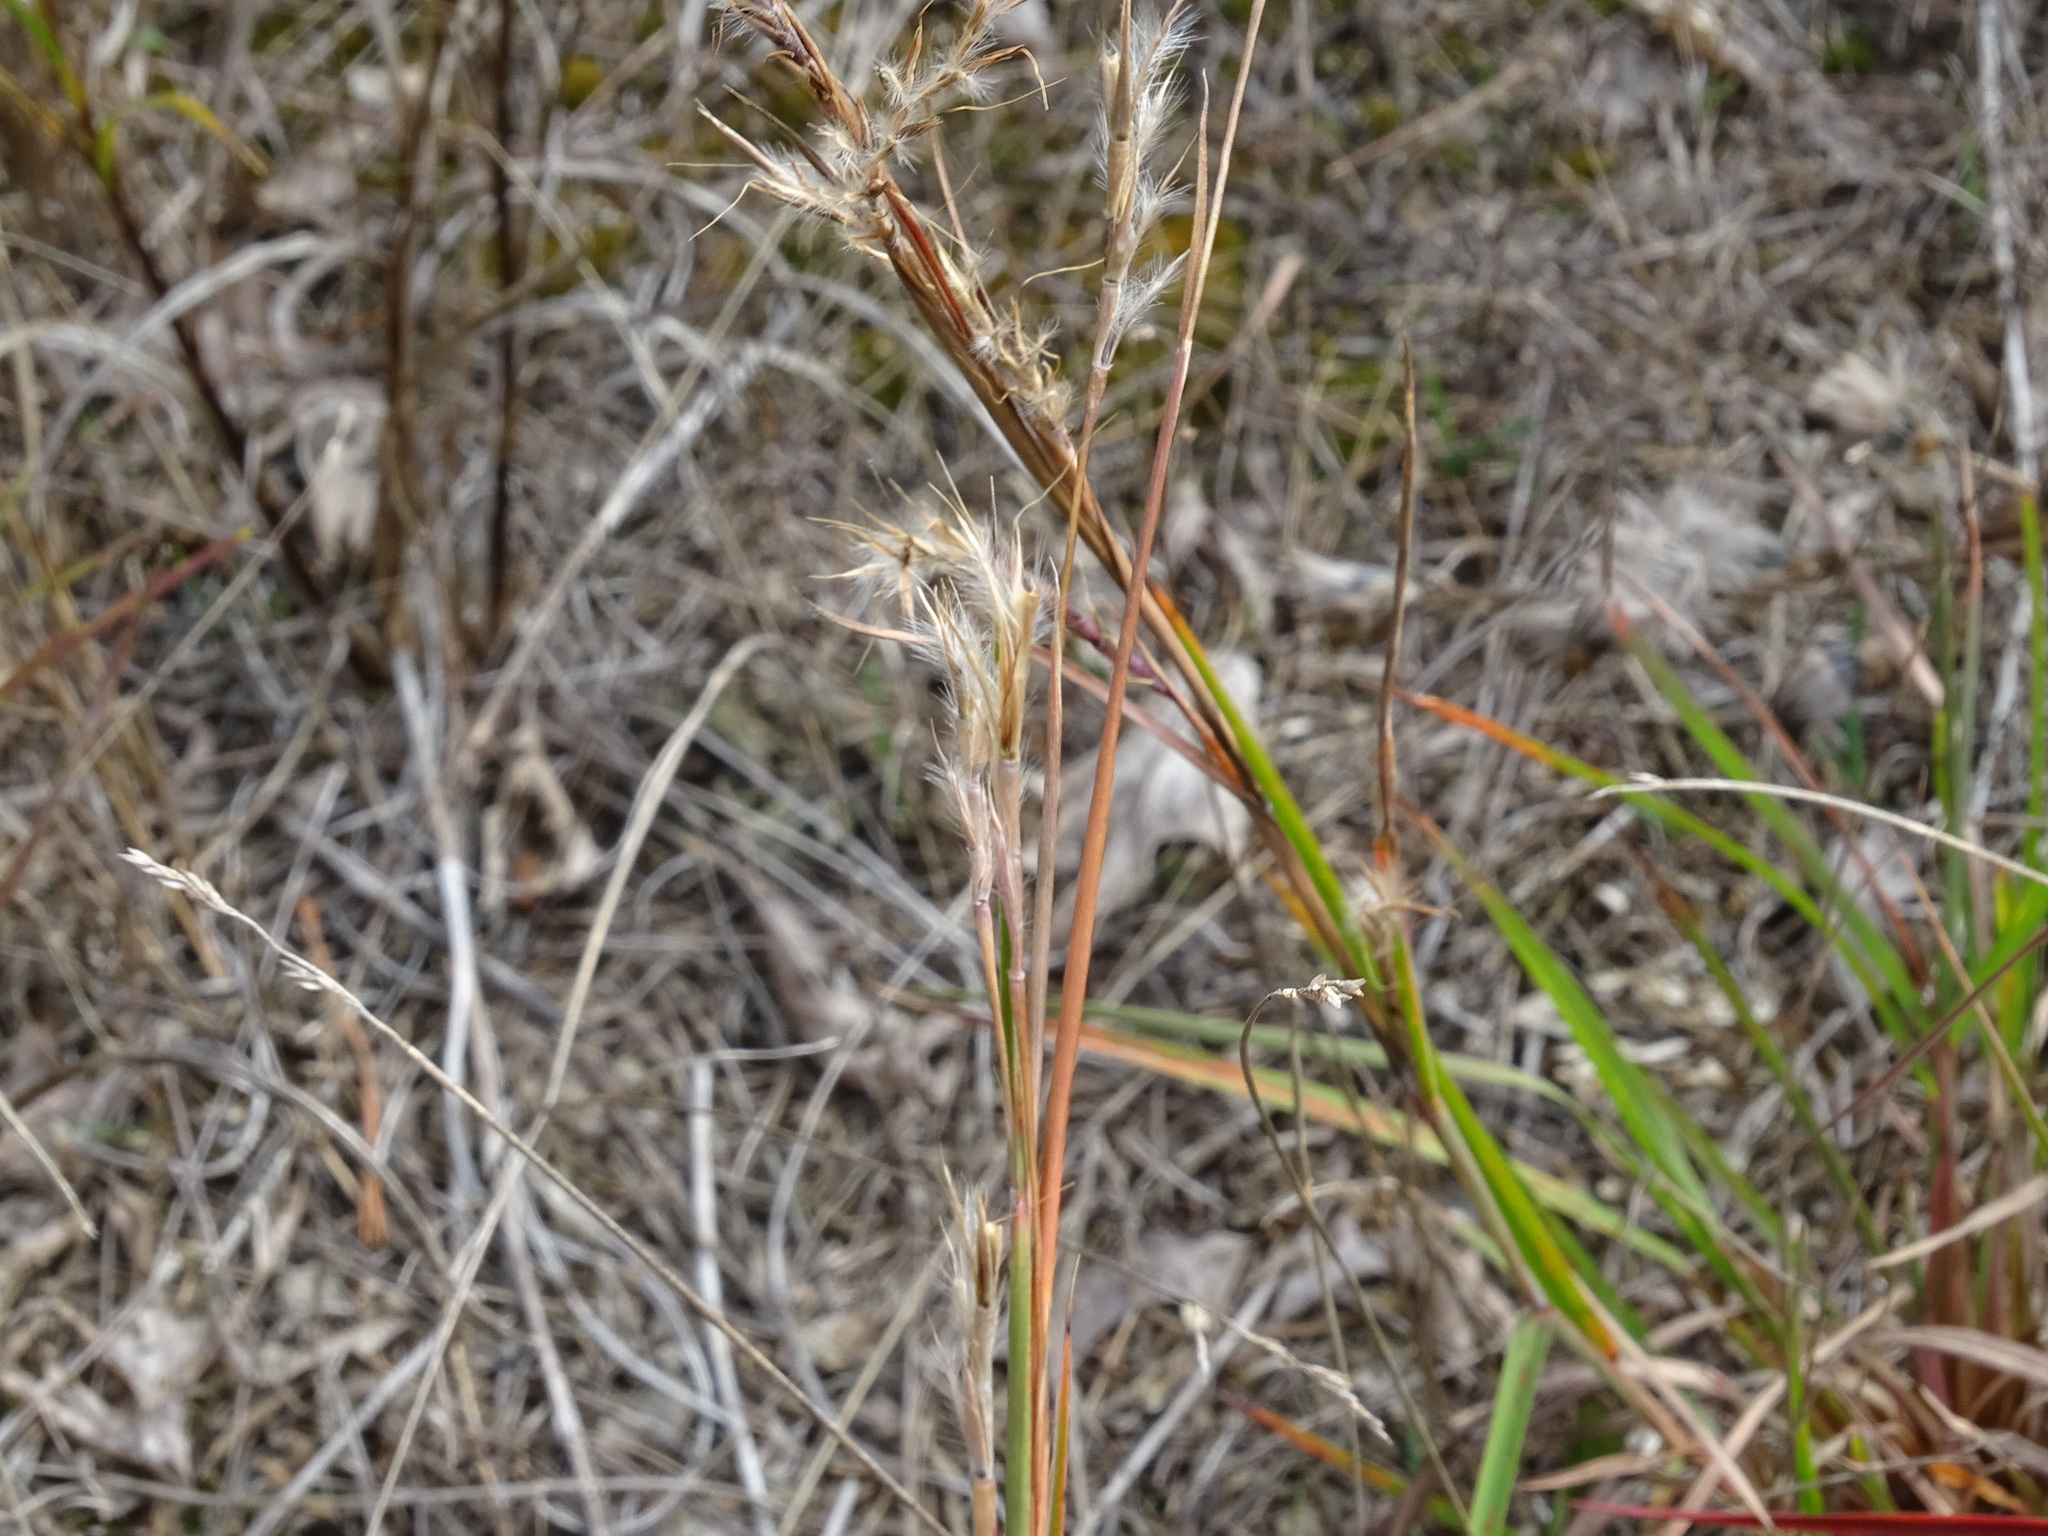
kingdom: Plantae
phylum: Tracheophyta
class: Liliopsida
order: Poales
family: Poaceae
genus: Schizachyrium
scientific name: Schizachyrium scoparium
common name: Little bluestem
